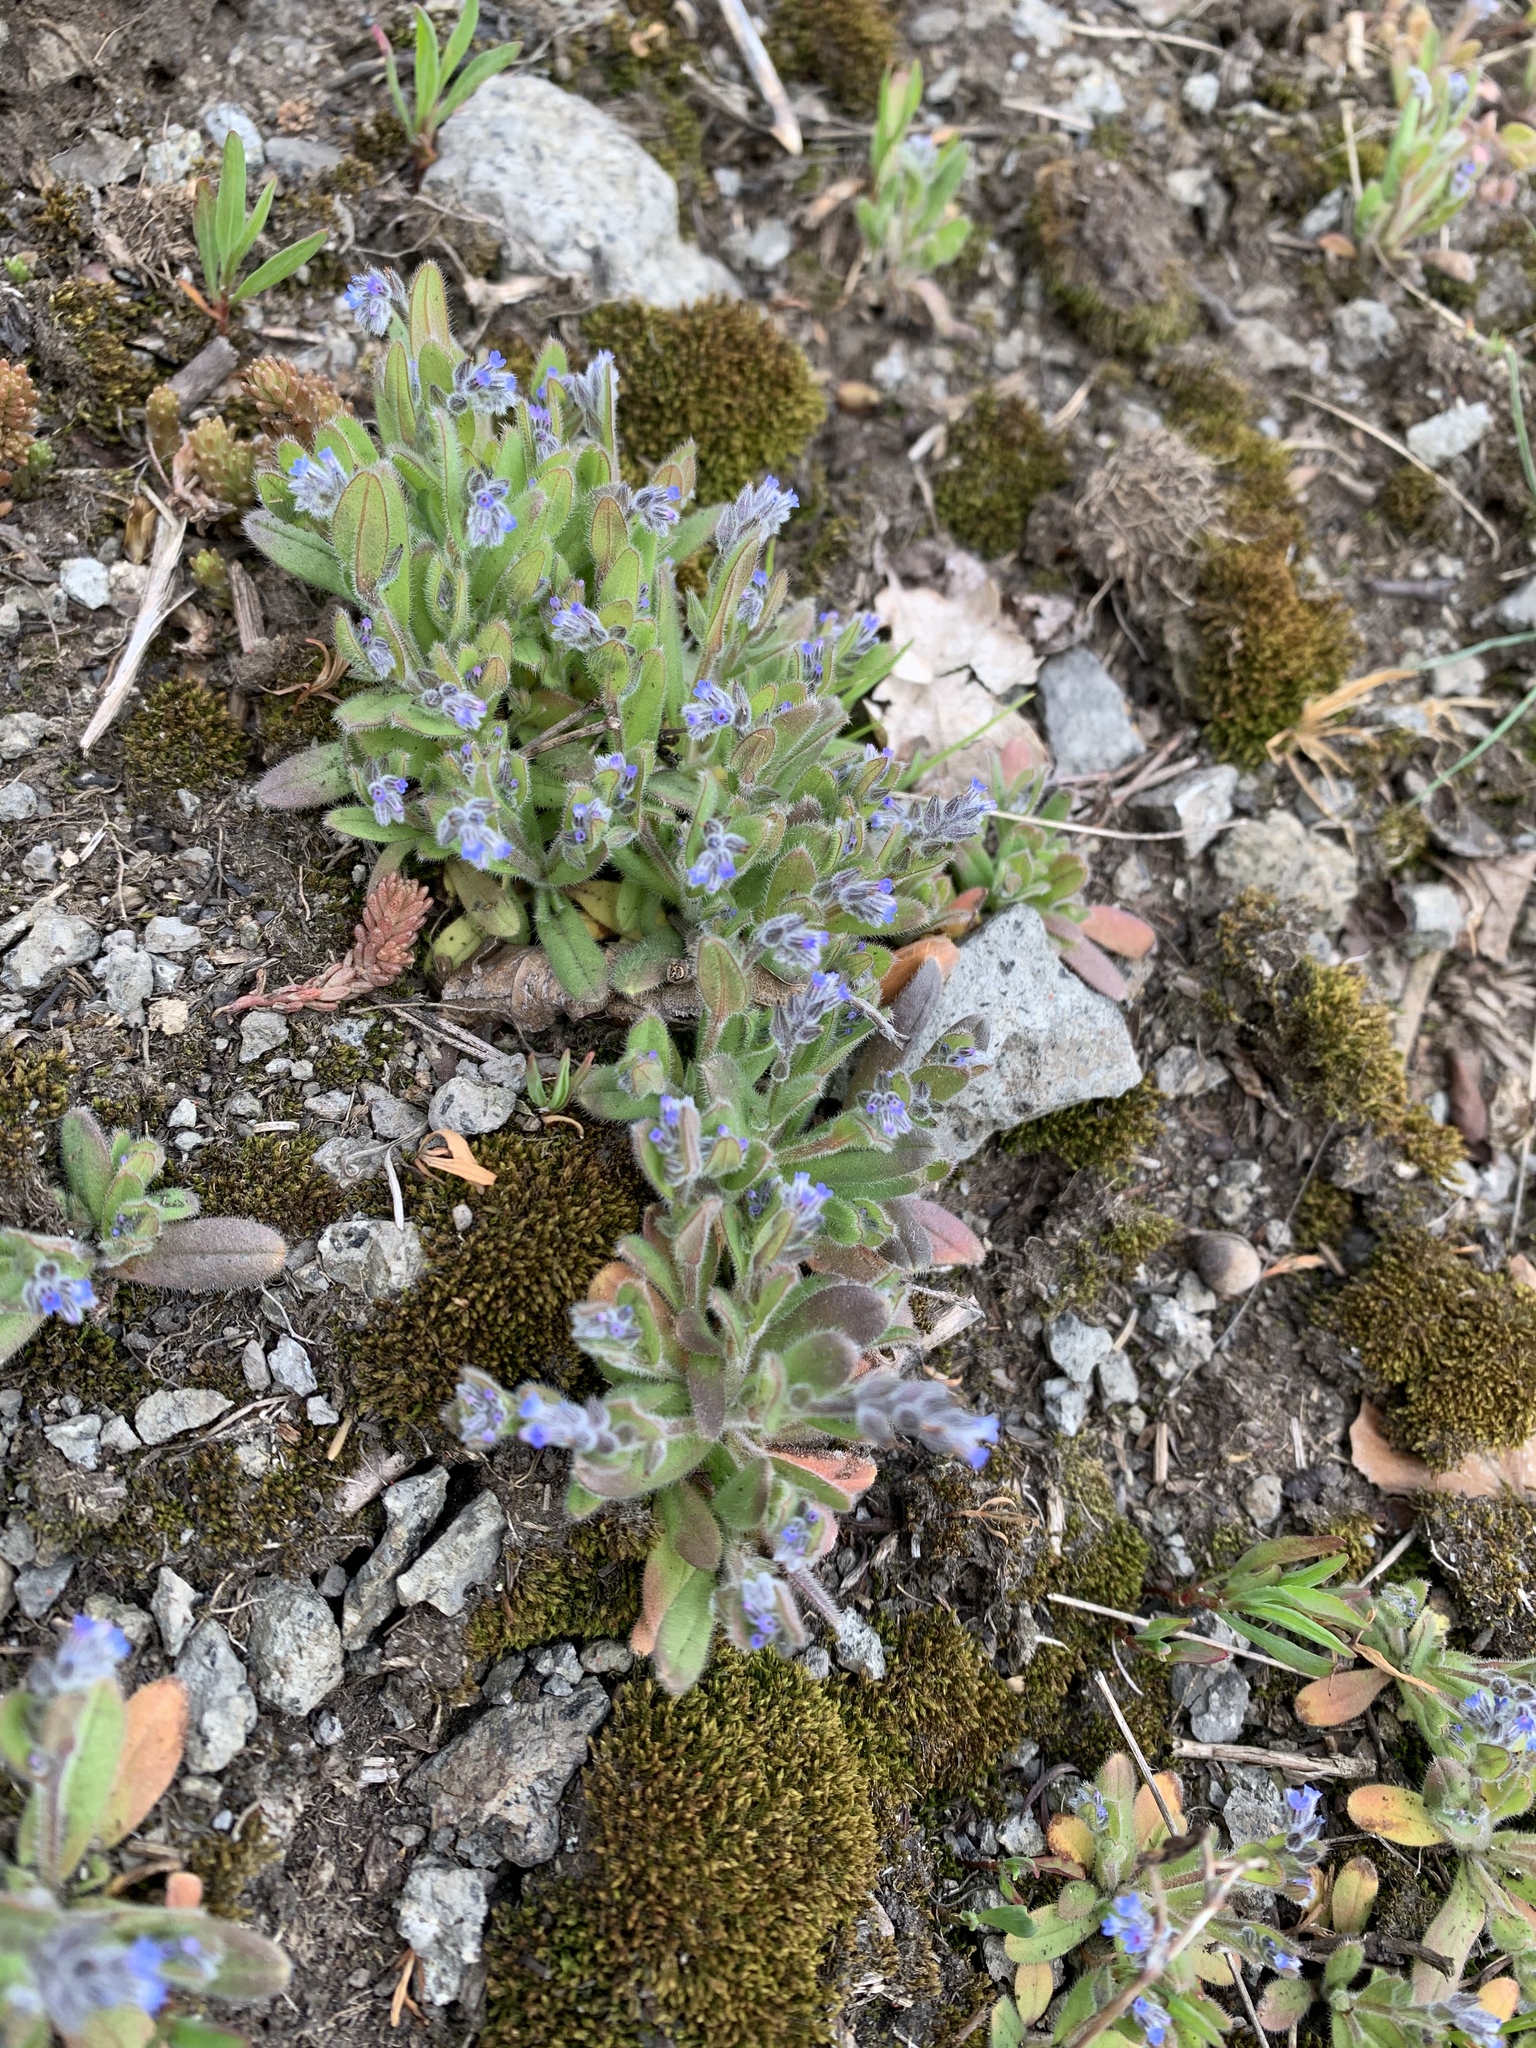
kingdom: Plantae
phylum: Tracheophyta
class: Magnoliopsida
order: Boraginales
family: Boraginaceae
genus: Myosotis
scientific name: Myosotis stricta
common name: Strict forget-me-not
